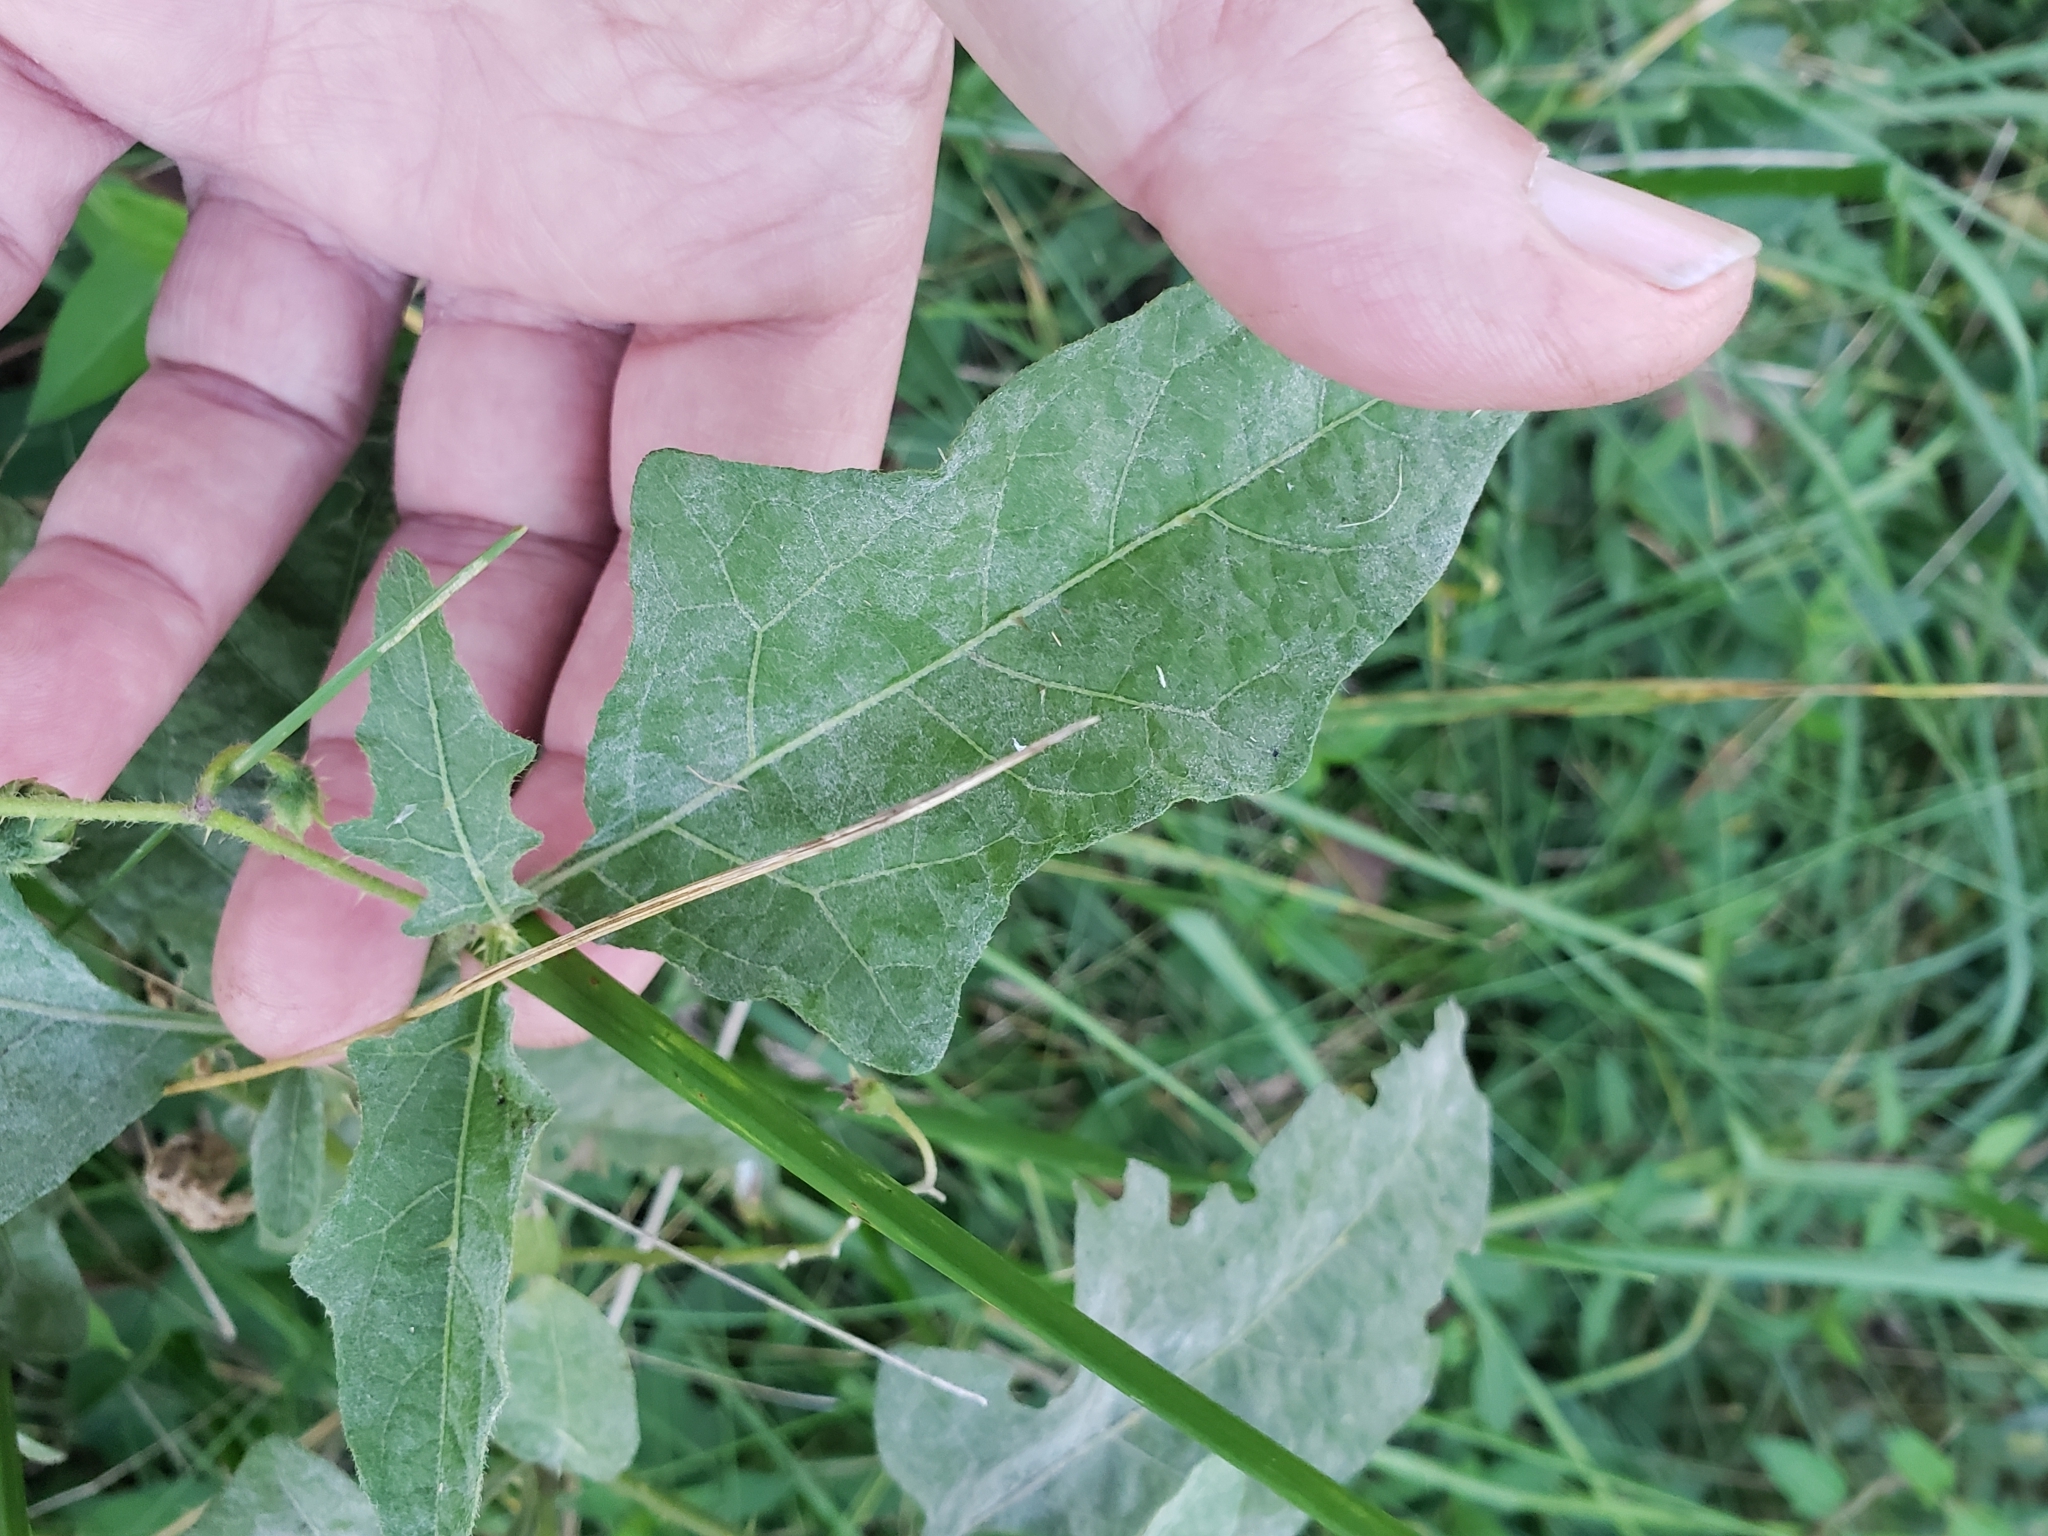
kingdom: Fungi
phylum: Ascomycota
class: Leotiomycetes
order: Helotiales
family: Erysiphaceae
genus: Podosphaera
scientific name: Podosphaera solanacearum
